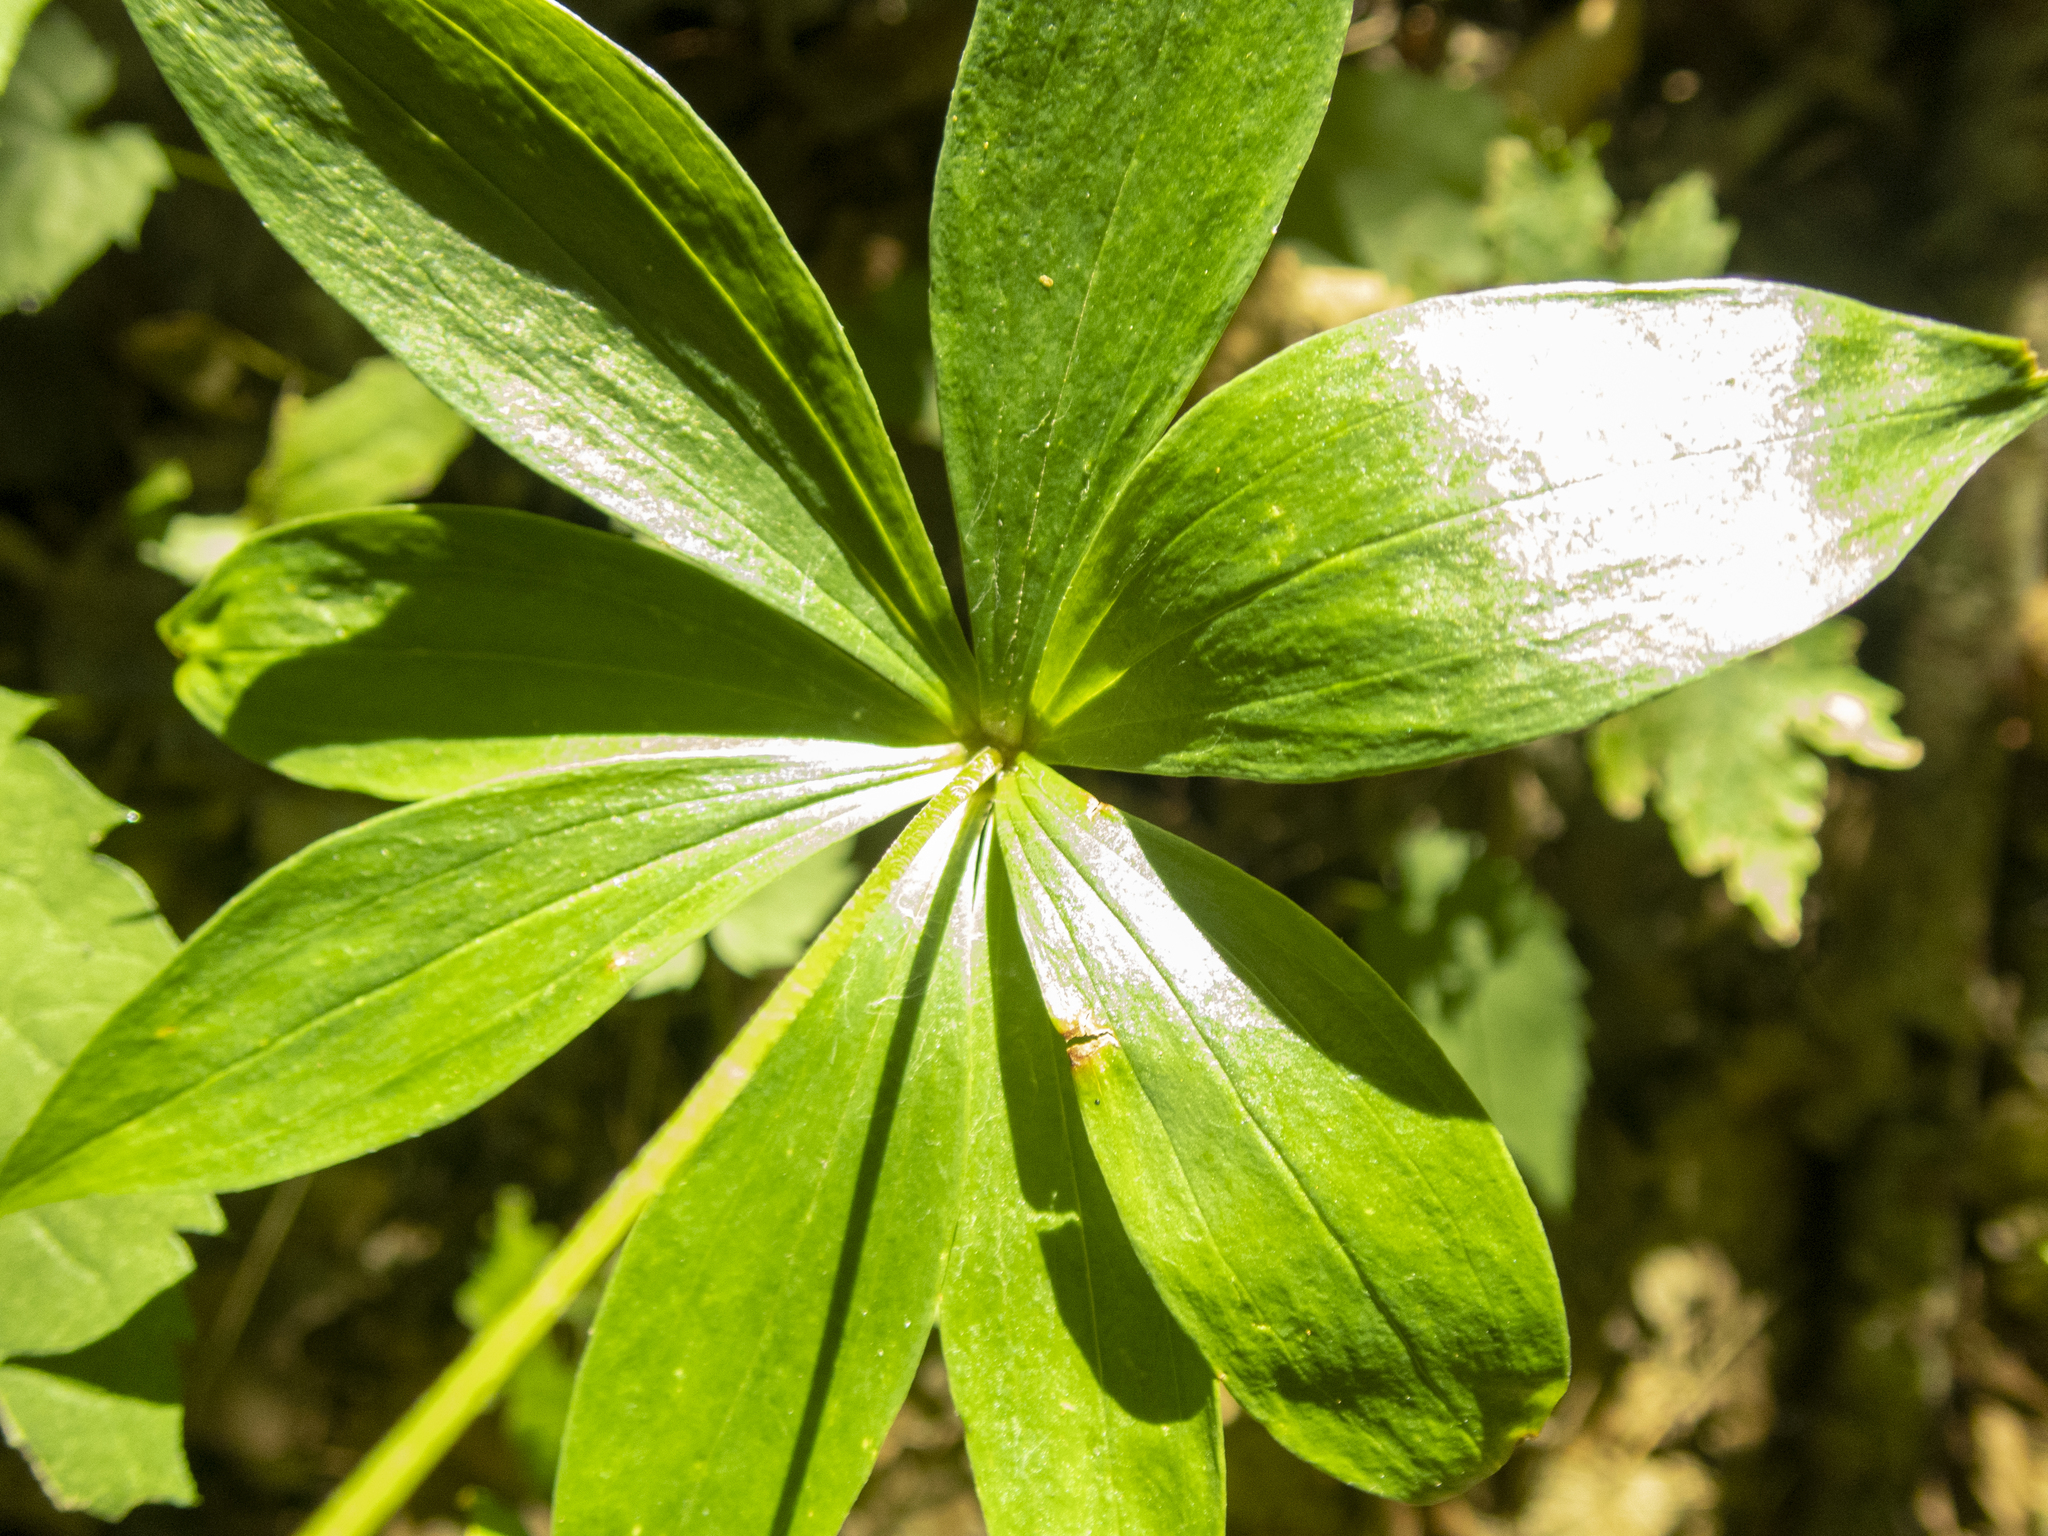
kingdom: Plantae
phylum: Tracheophyta
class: Liliopsida
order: Liliales
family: Liliaceae
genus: Medeola
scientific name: Medeola virginiana
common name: Indian cucumber-root
